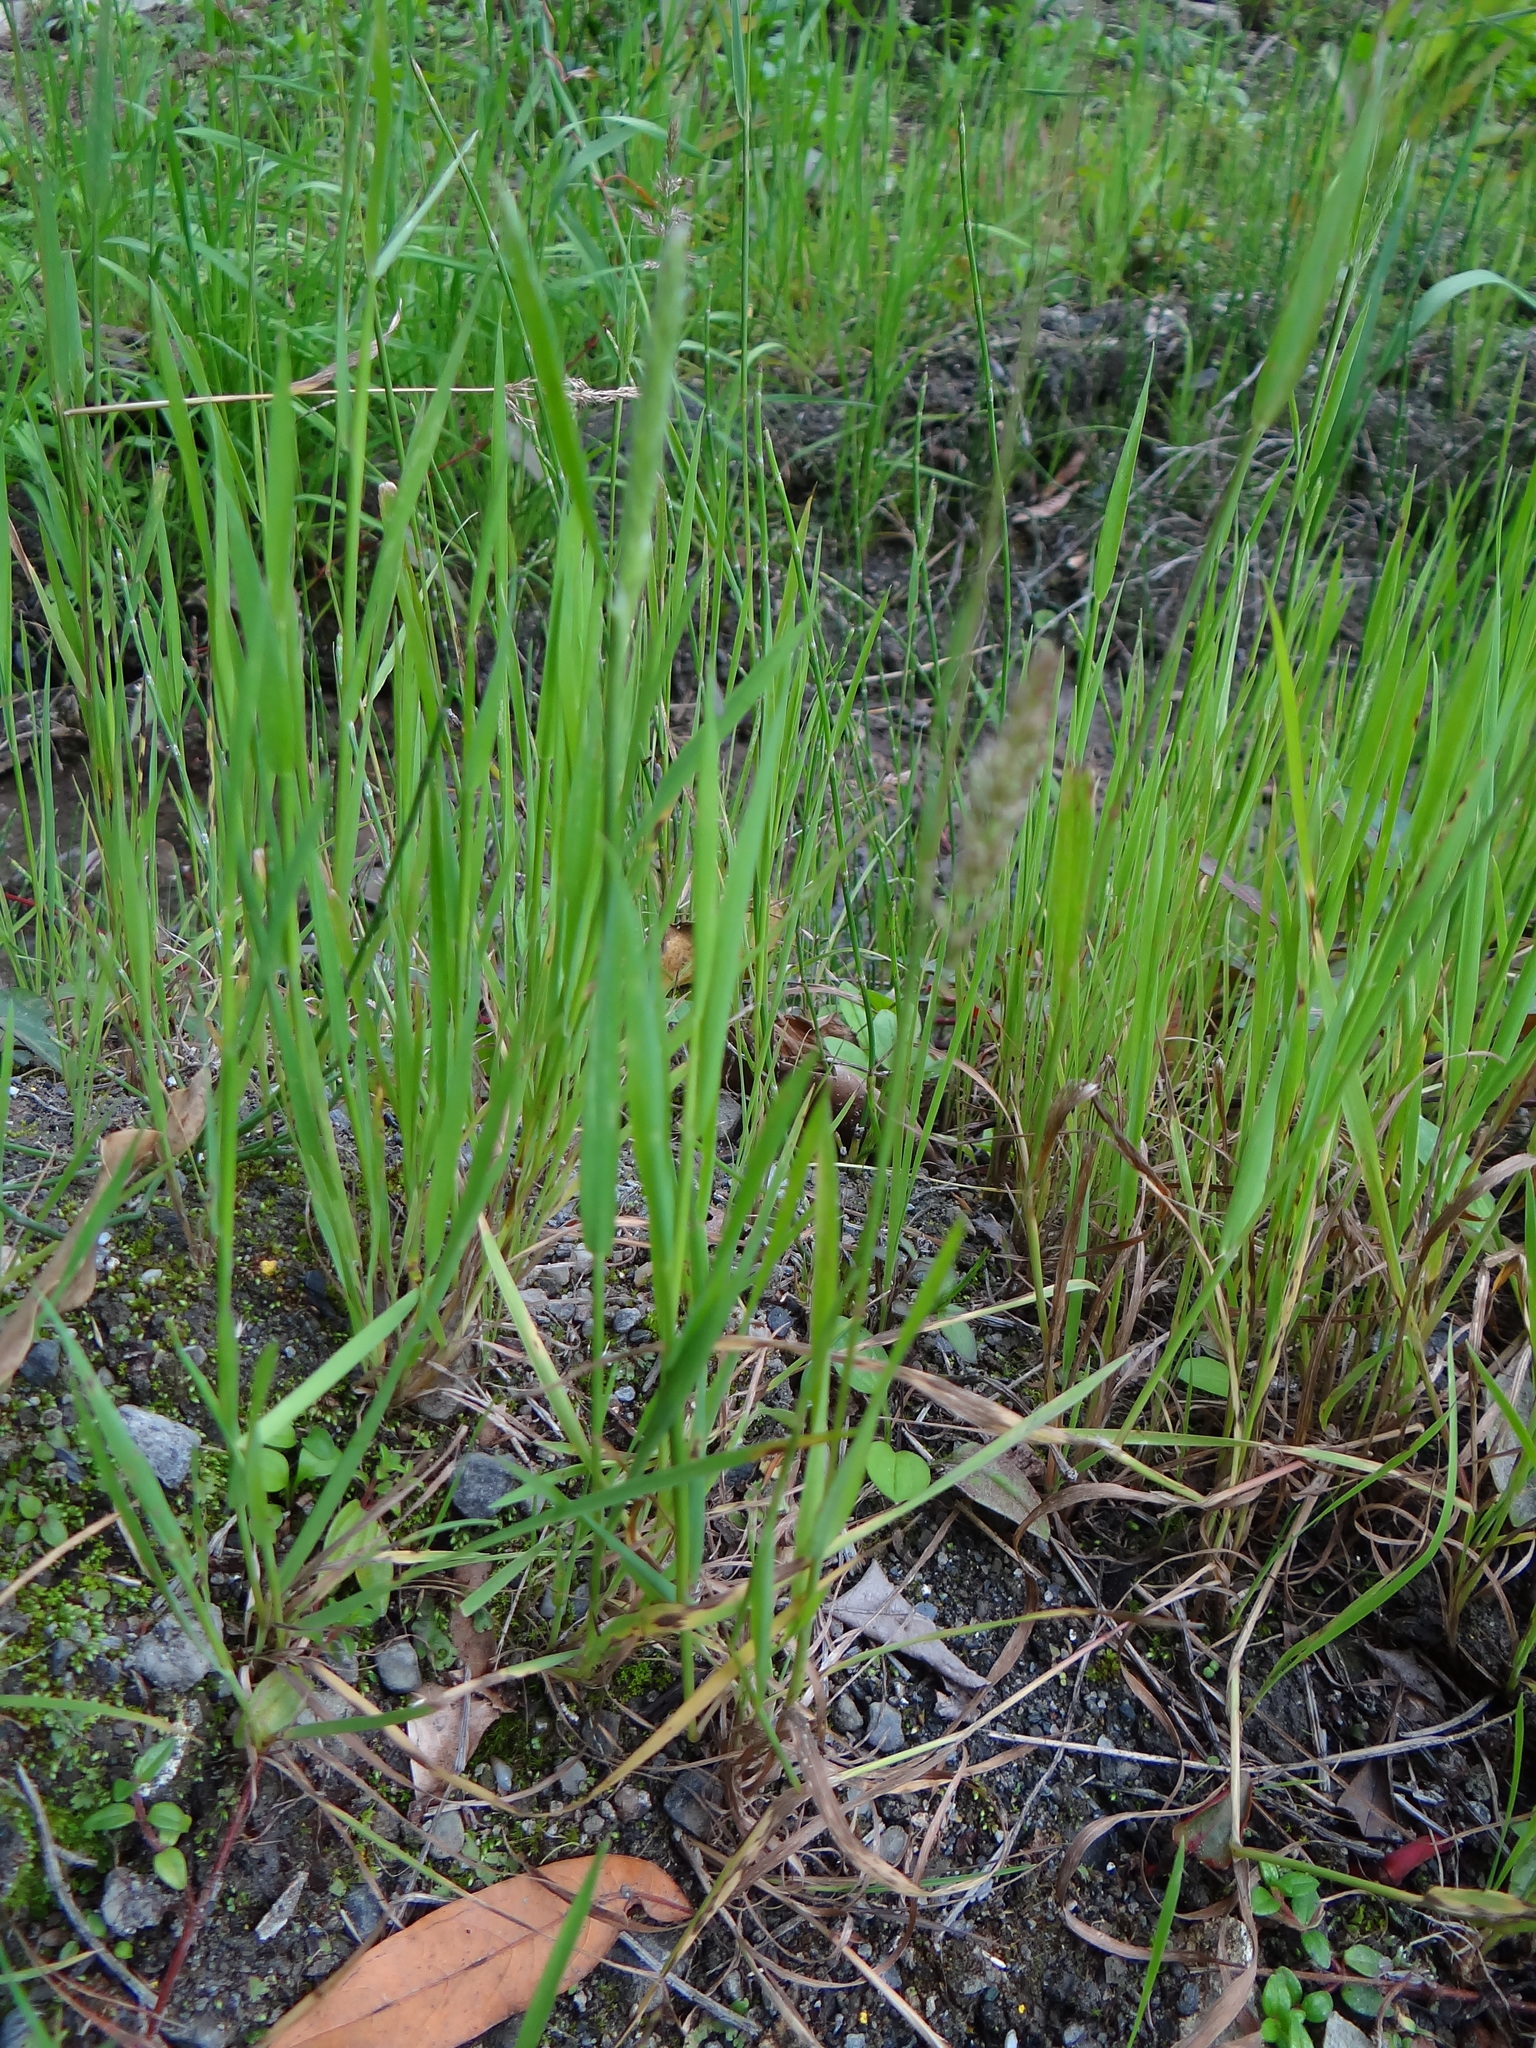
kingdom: Plantae
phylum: Tracheophyta
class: Liliopsida
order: Poales
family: Poaceae
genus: Polypogon
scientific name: Polypogon fugax
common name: Asia minor bluegrass
